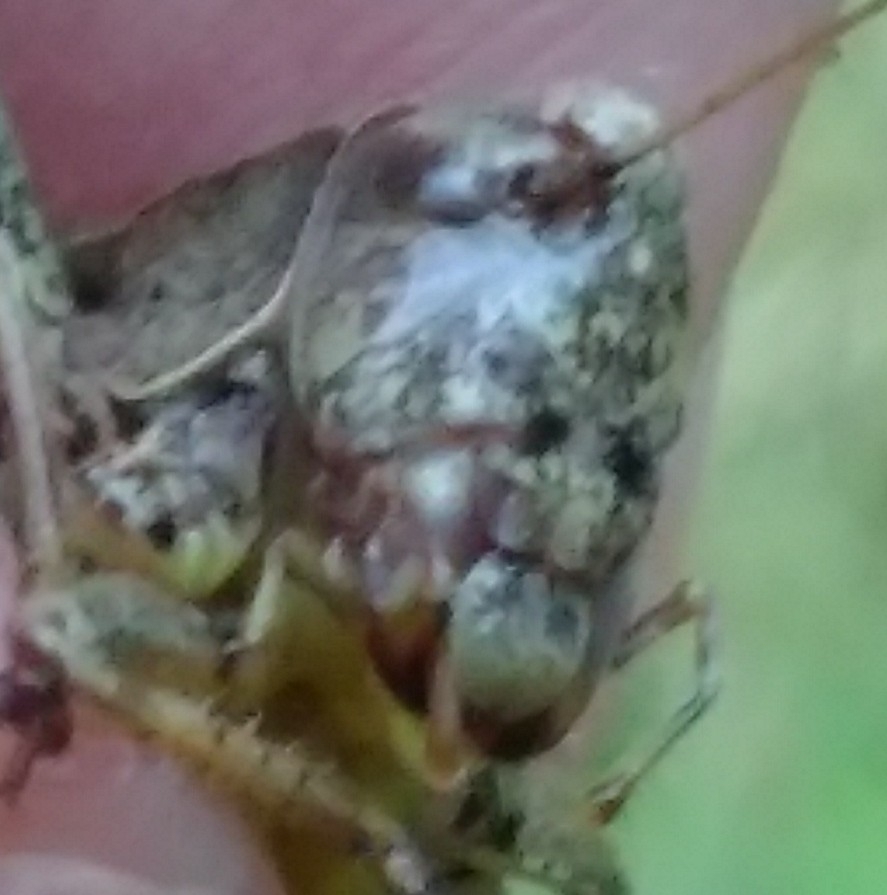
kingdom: Animalia
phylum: Arthropoda
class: Insecta
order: Orthoptera
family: Tettigoniidae
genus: Pholidoptera
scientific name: Pholidoptera griseoaptera
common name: Dark bush-cricket
